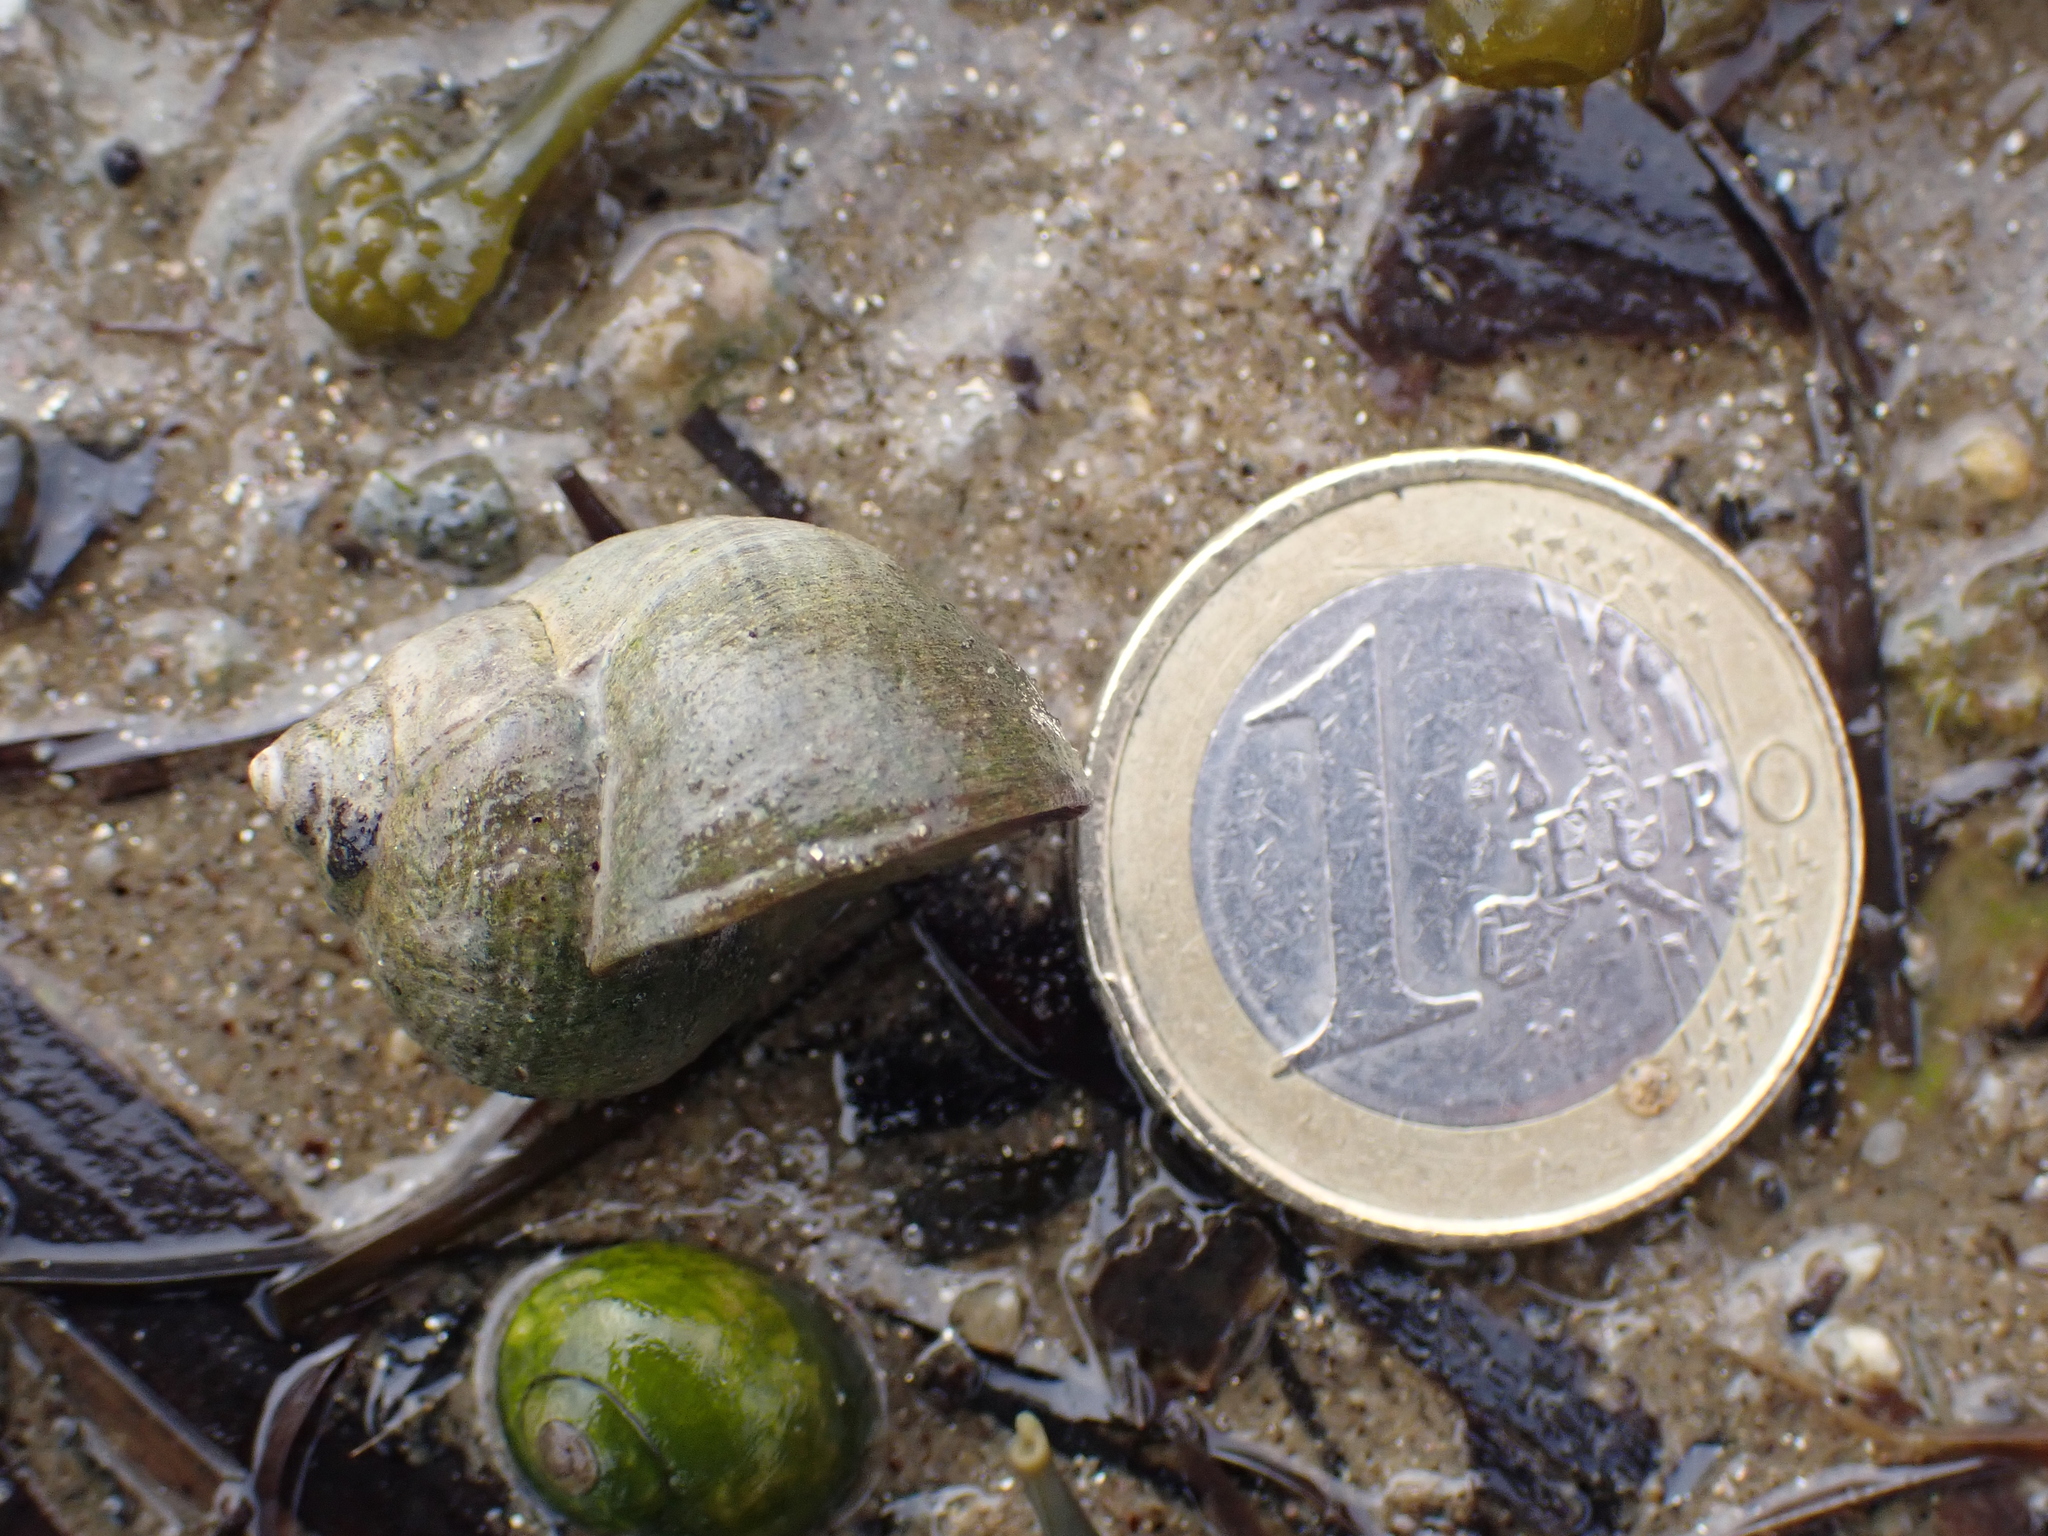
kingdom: Animalia
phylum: Mollusca
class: Gastropoda
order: Littorinimorpha
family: Littorinidae
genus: Littorina
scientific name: Littorina littorea
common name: Common periwinkle
